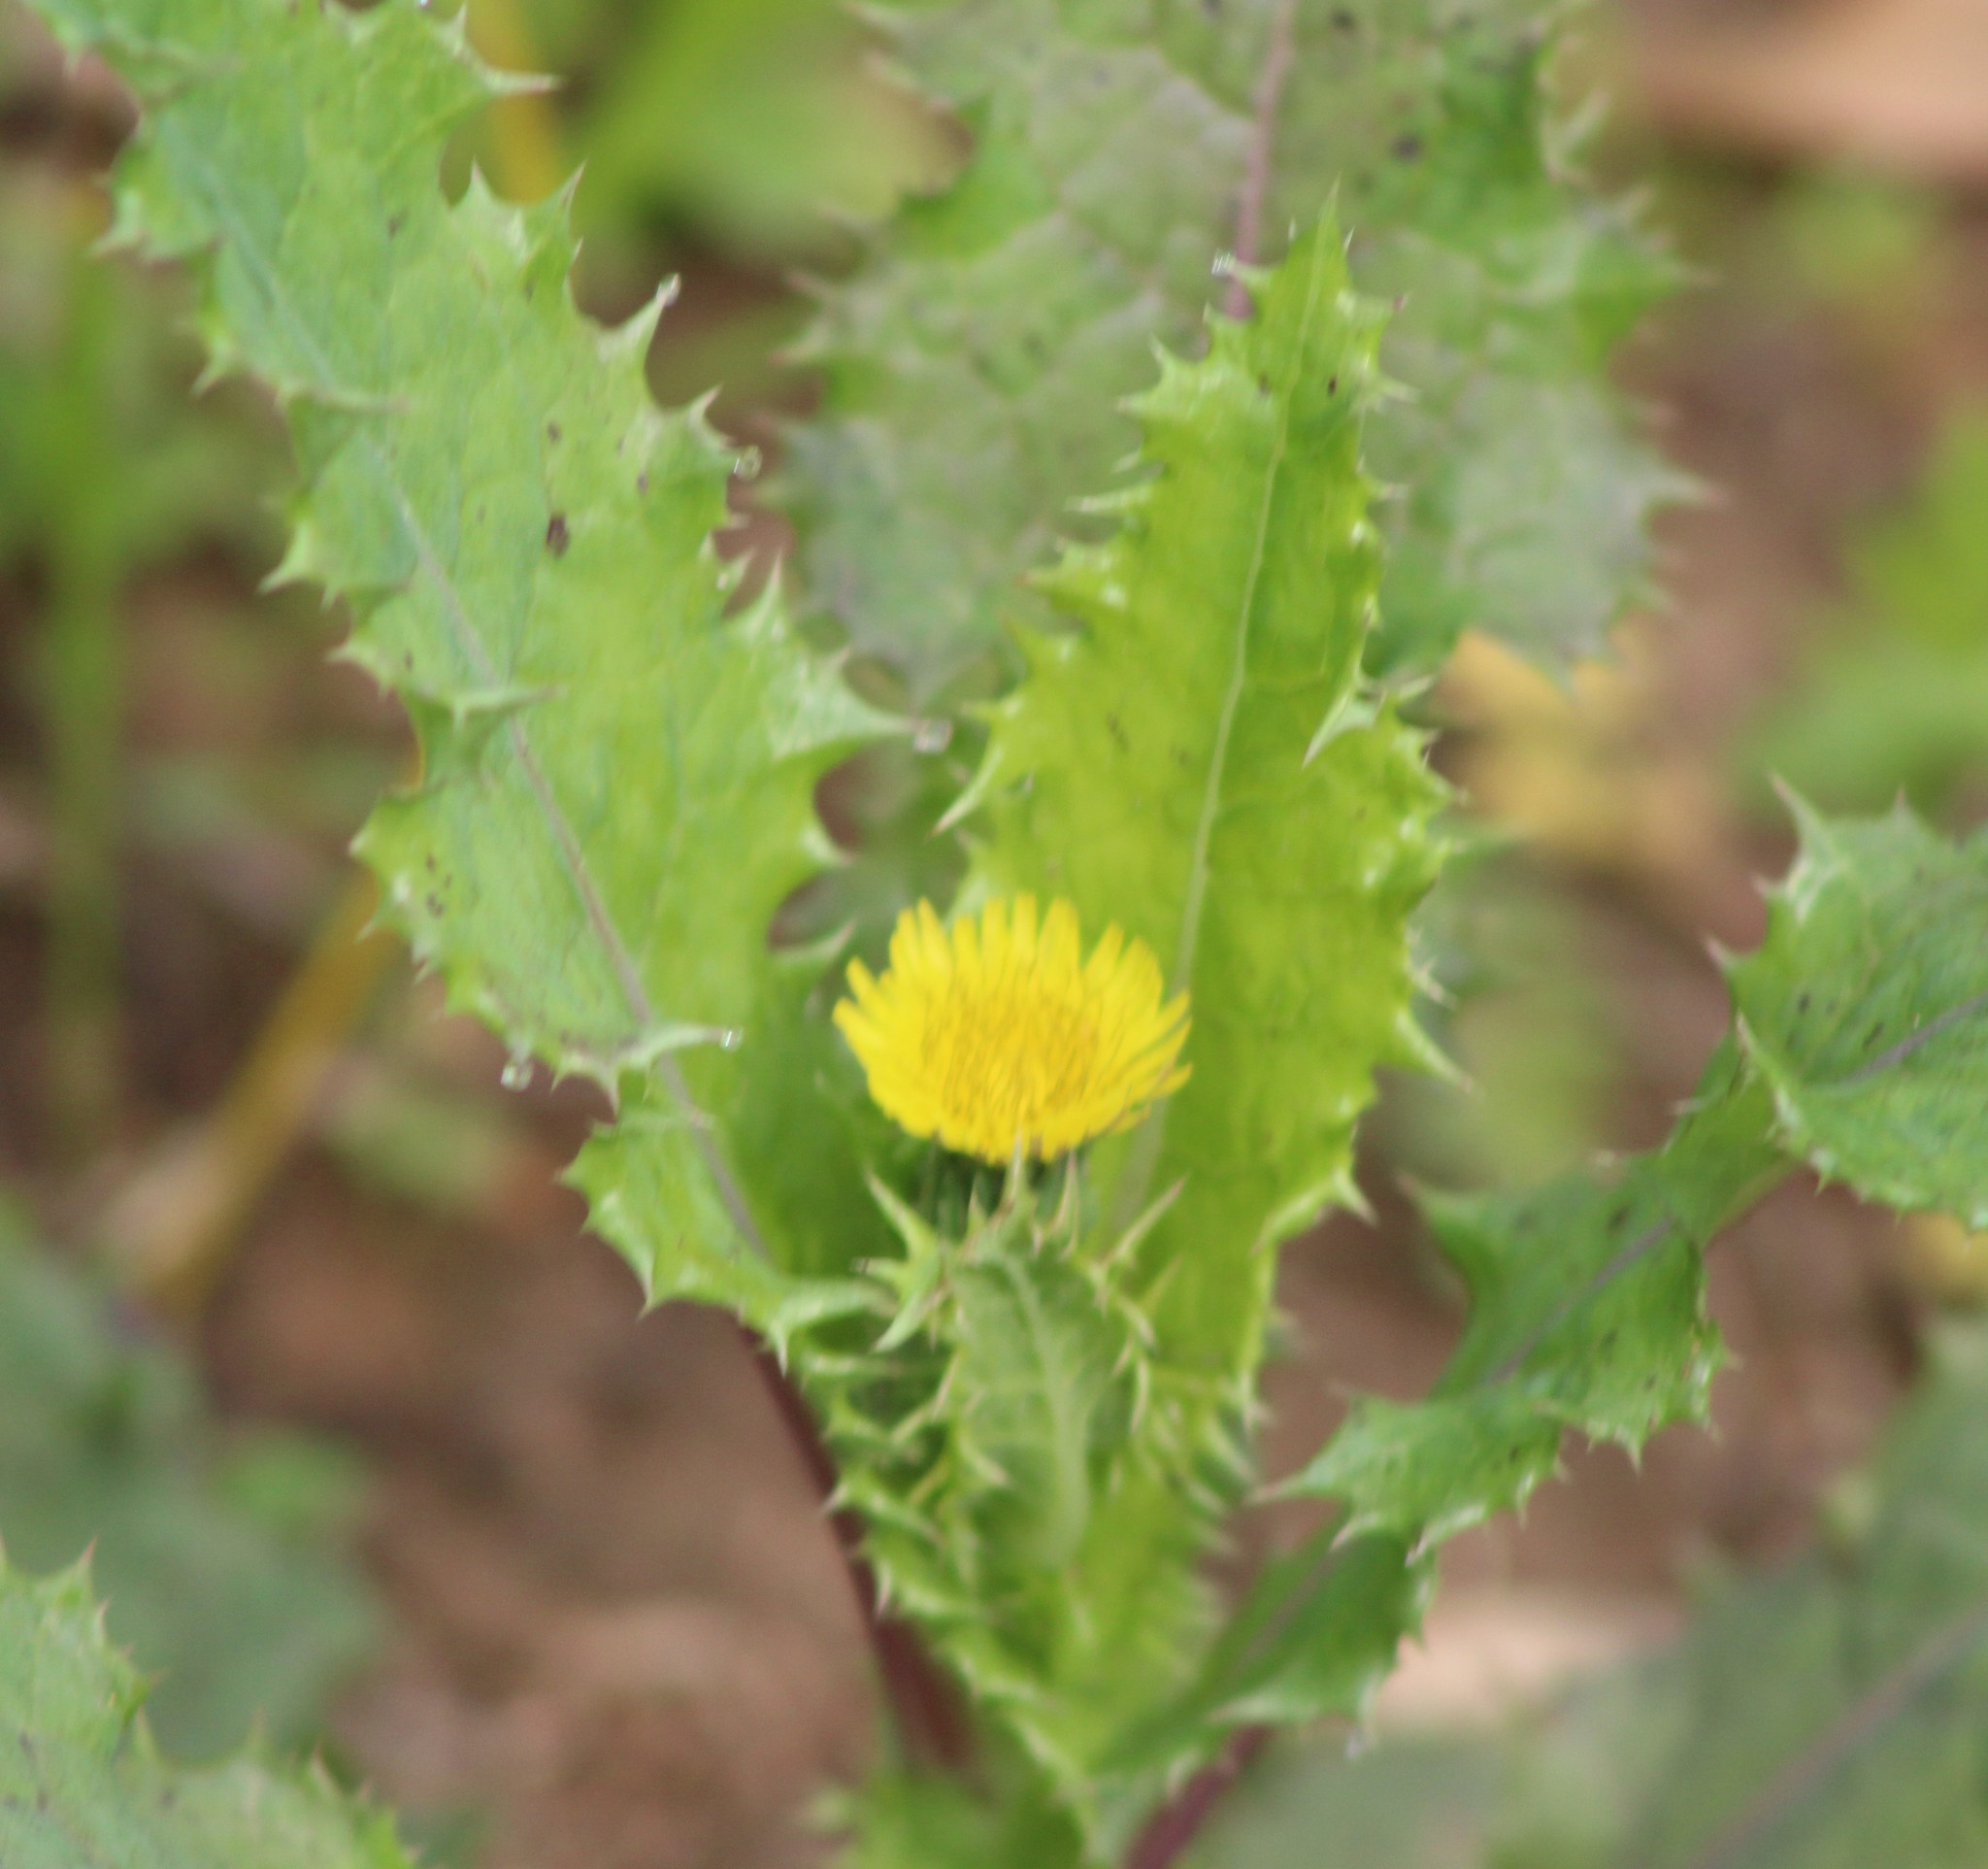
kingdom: Plantae
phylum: Tracheophyta
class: Magnoliopsida
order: Asterales
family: Asteraceae
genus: Sonchus
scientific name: Sonchus asper
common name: Prickly sow-thistle
